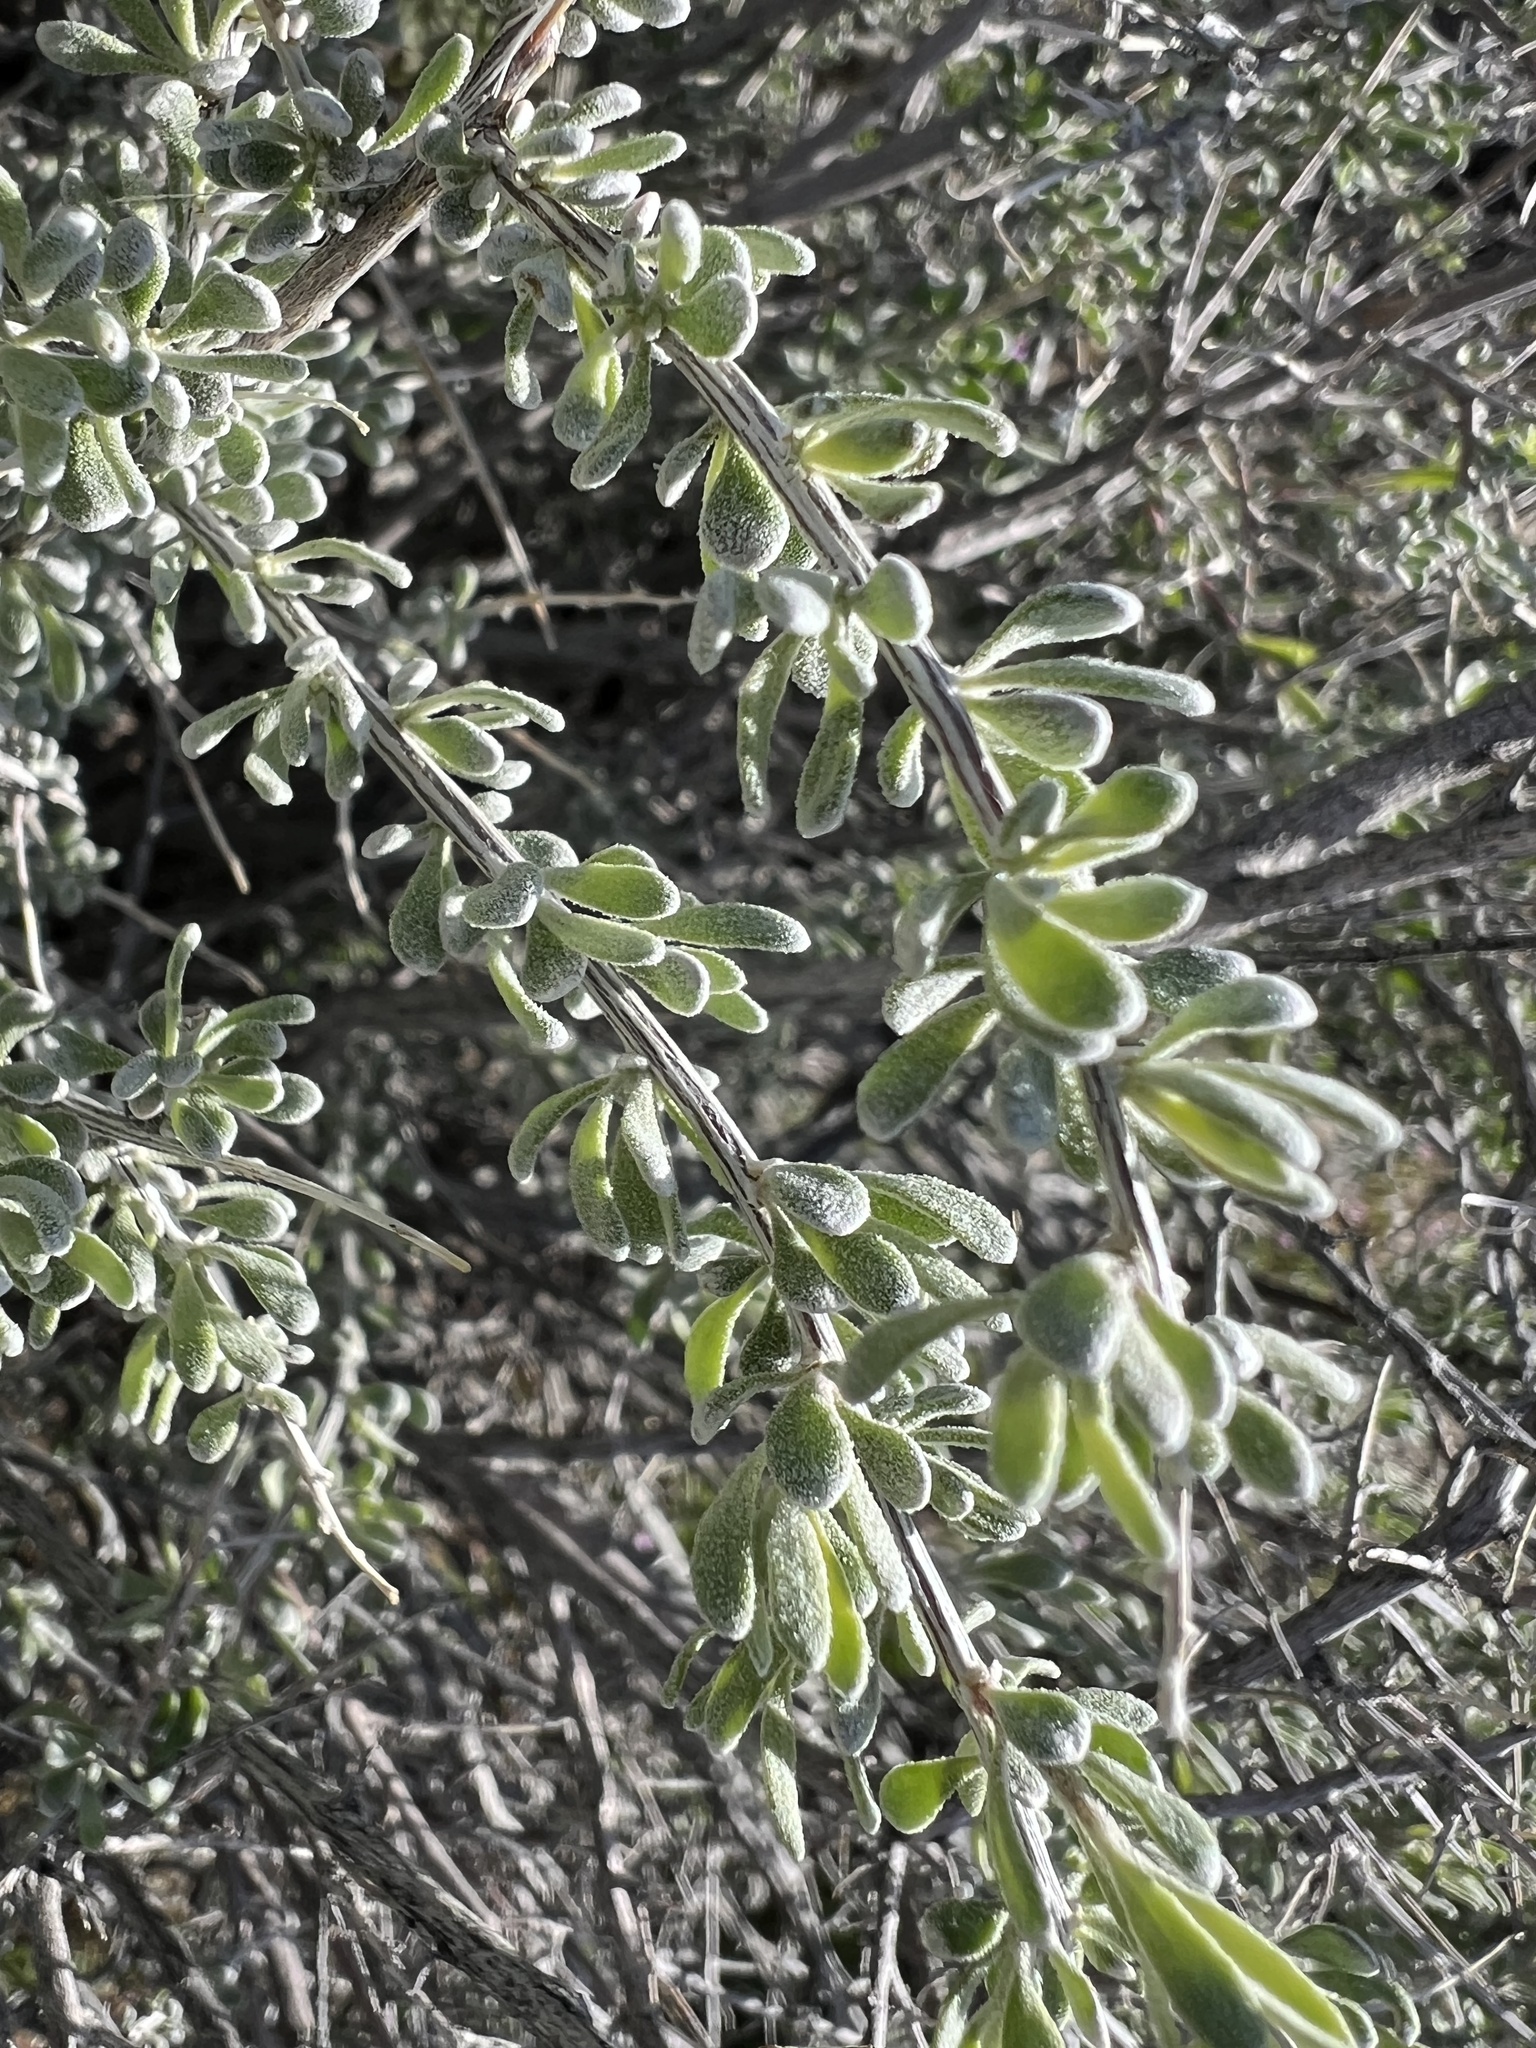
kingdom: Plantae
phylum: Tracheophyta
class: Magnoliopsida
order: Caryophyllales
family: Amaranthaceae
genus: Grayia
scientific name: Grayia spinosa
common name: Spiny hopsage
